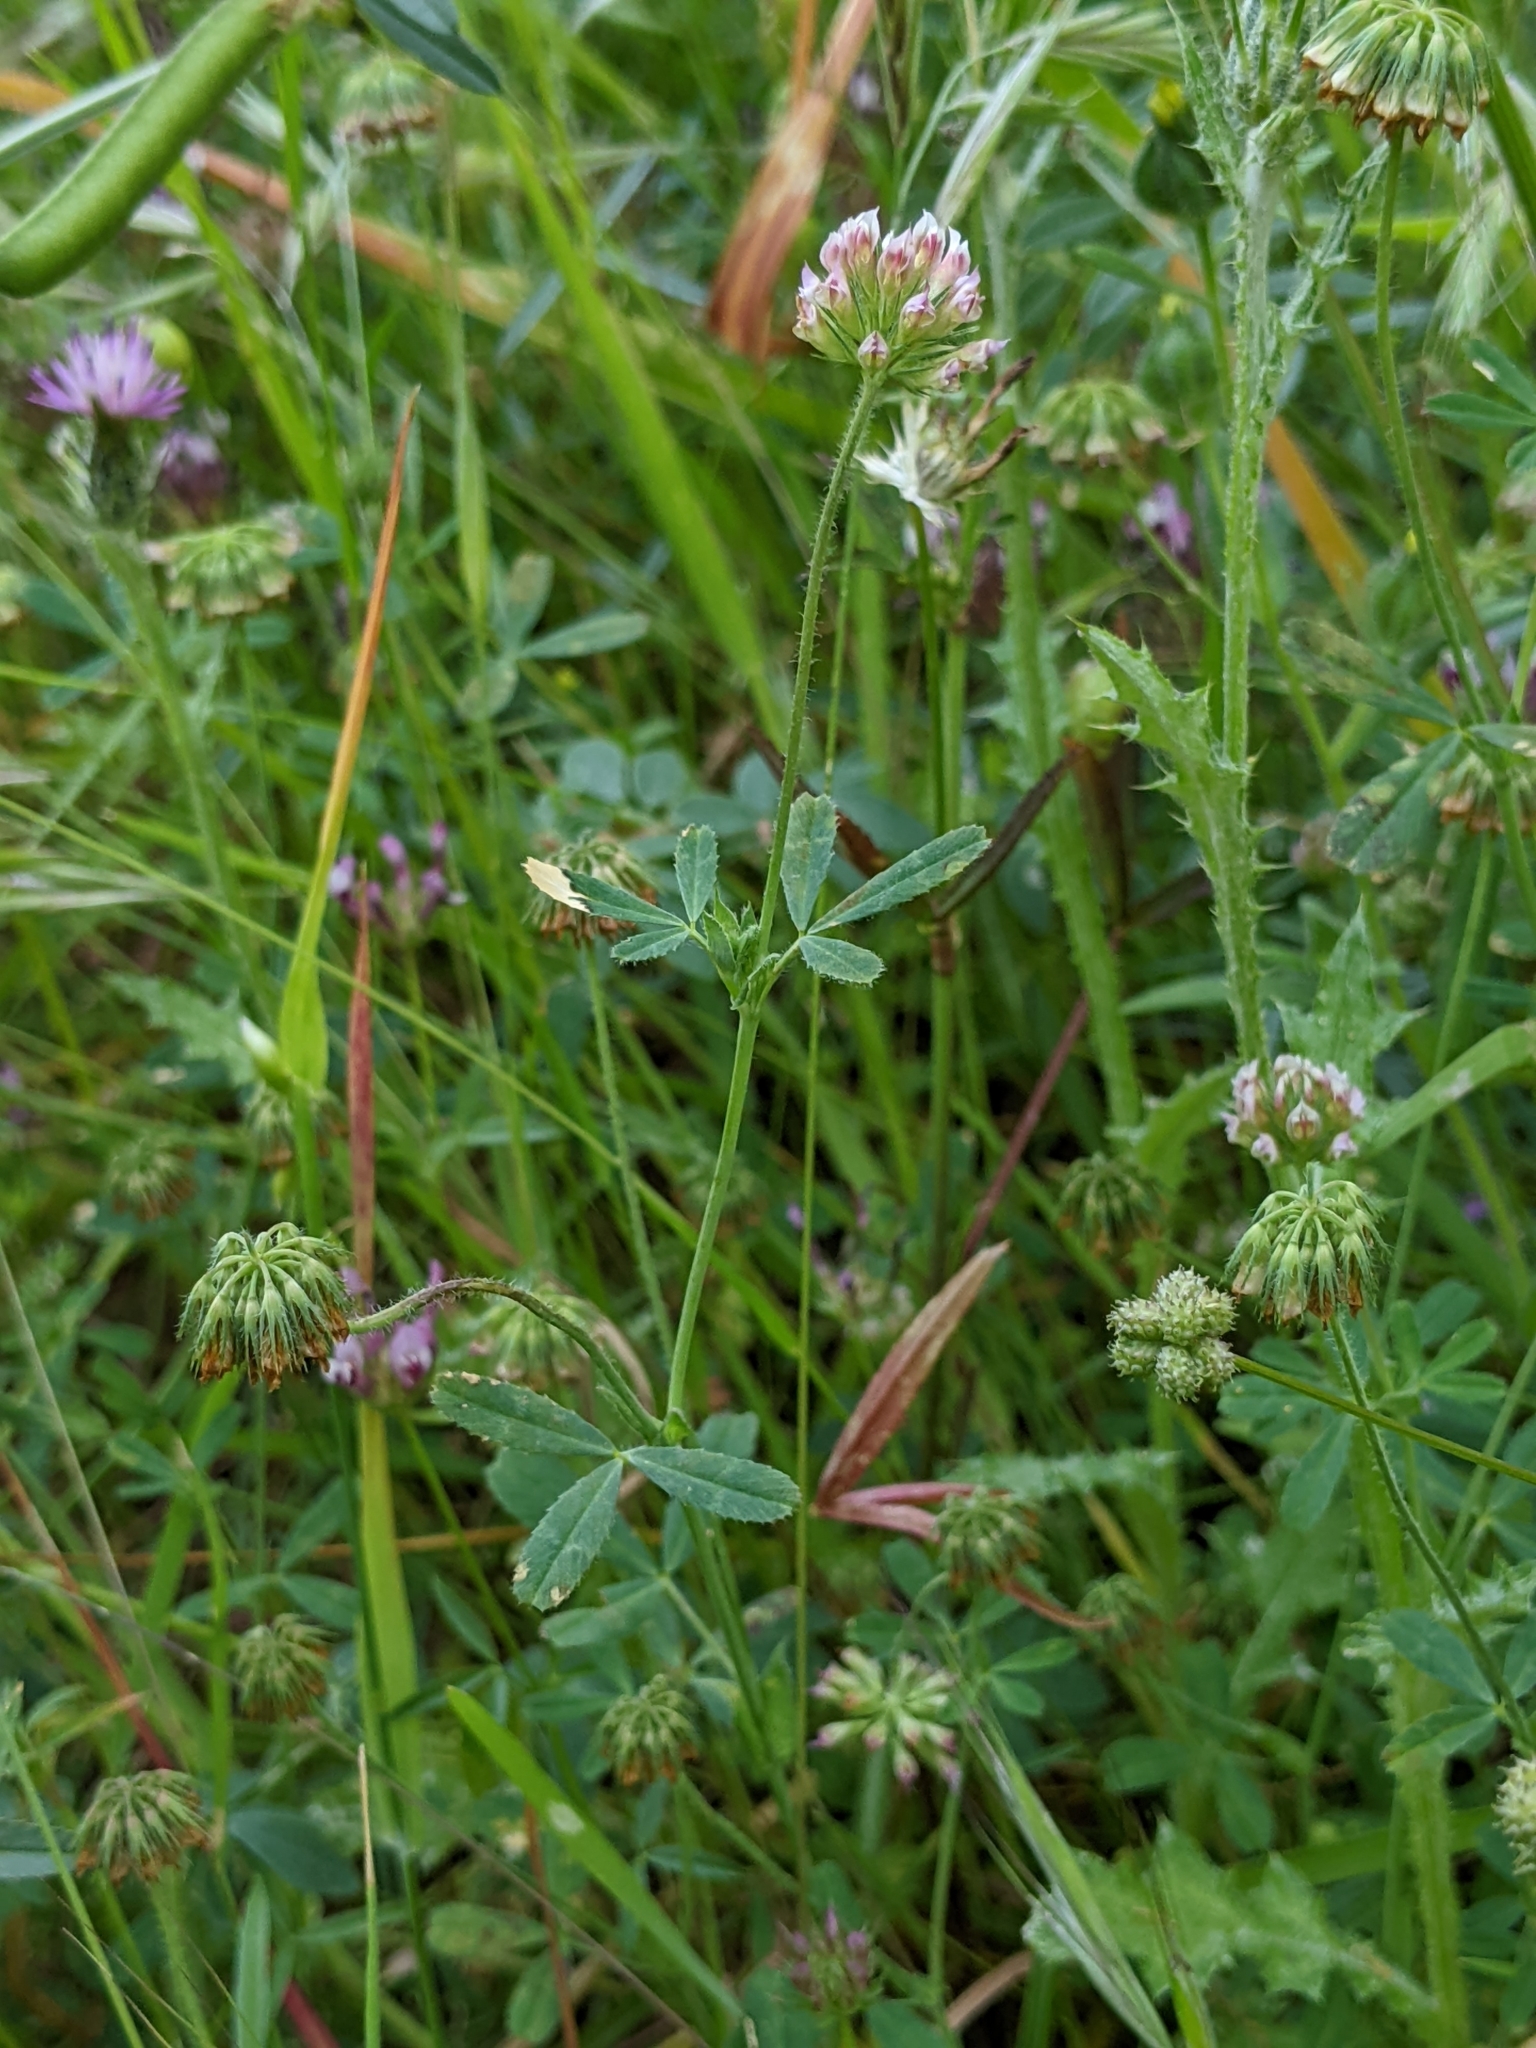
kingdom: Plantae
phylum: Tracheophyta
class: Magnoliopsida
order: Fabales
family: Fabaceae
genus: Trifolium
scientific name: Trifolium bifidum
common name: Notch-leaf clover
